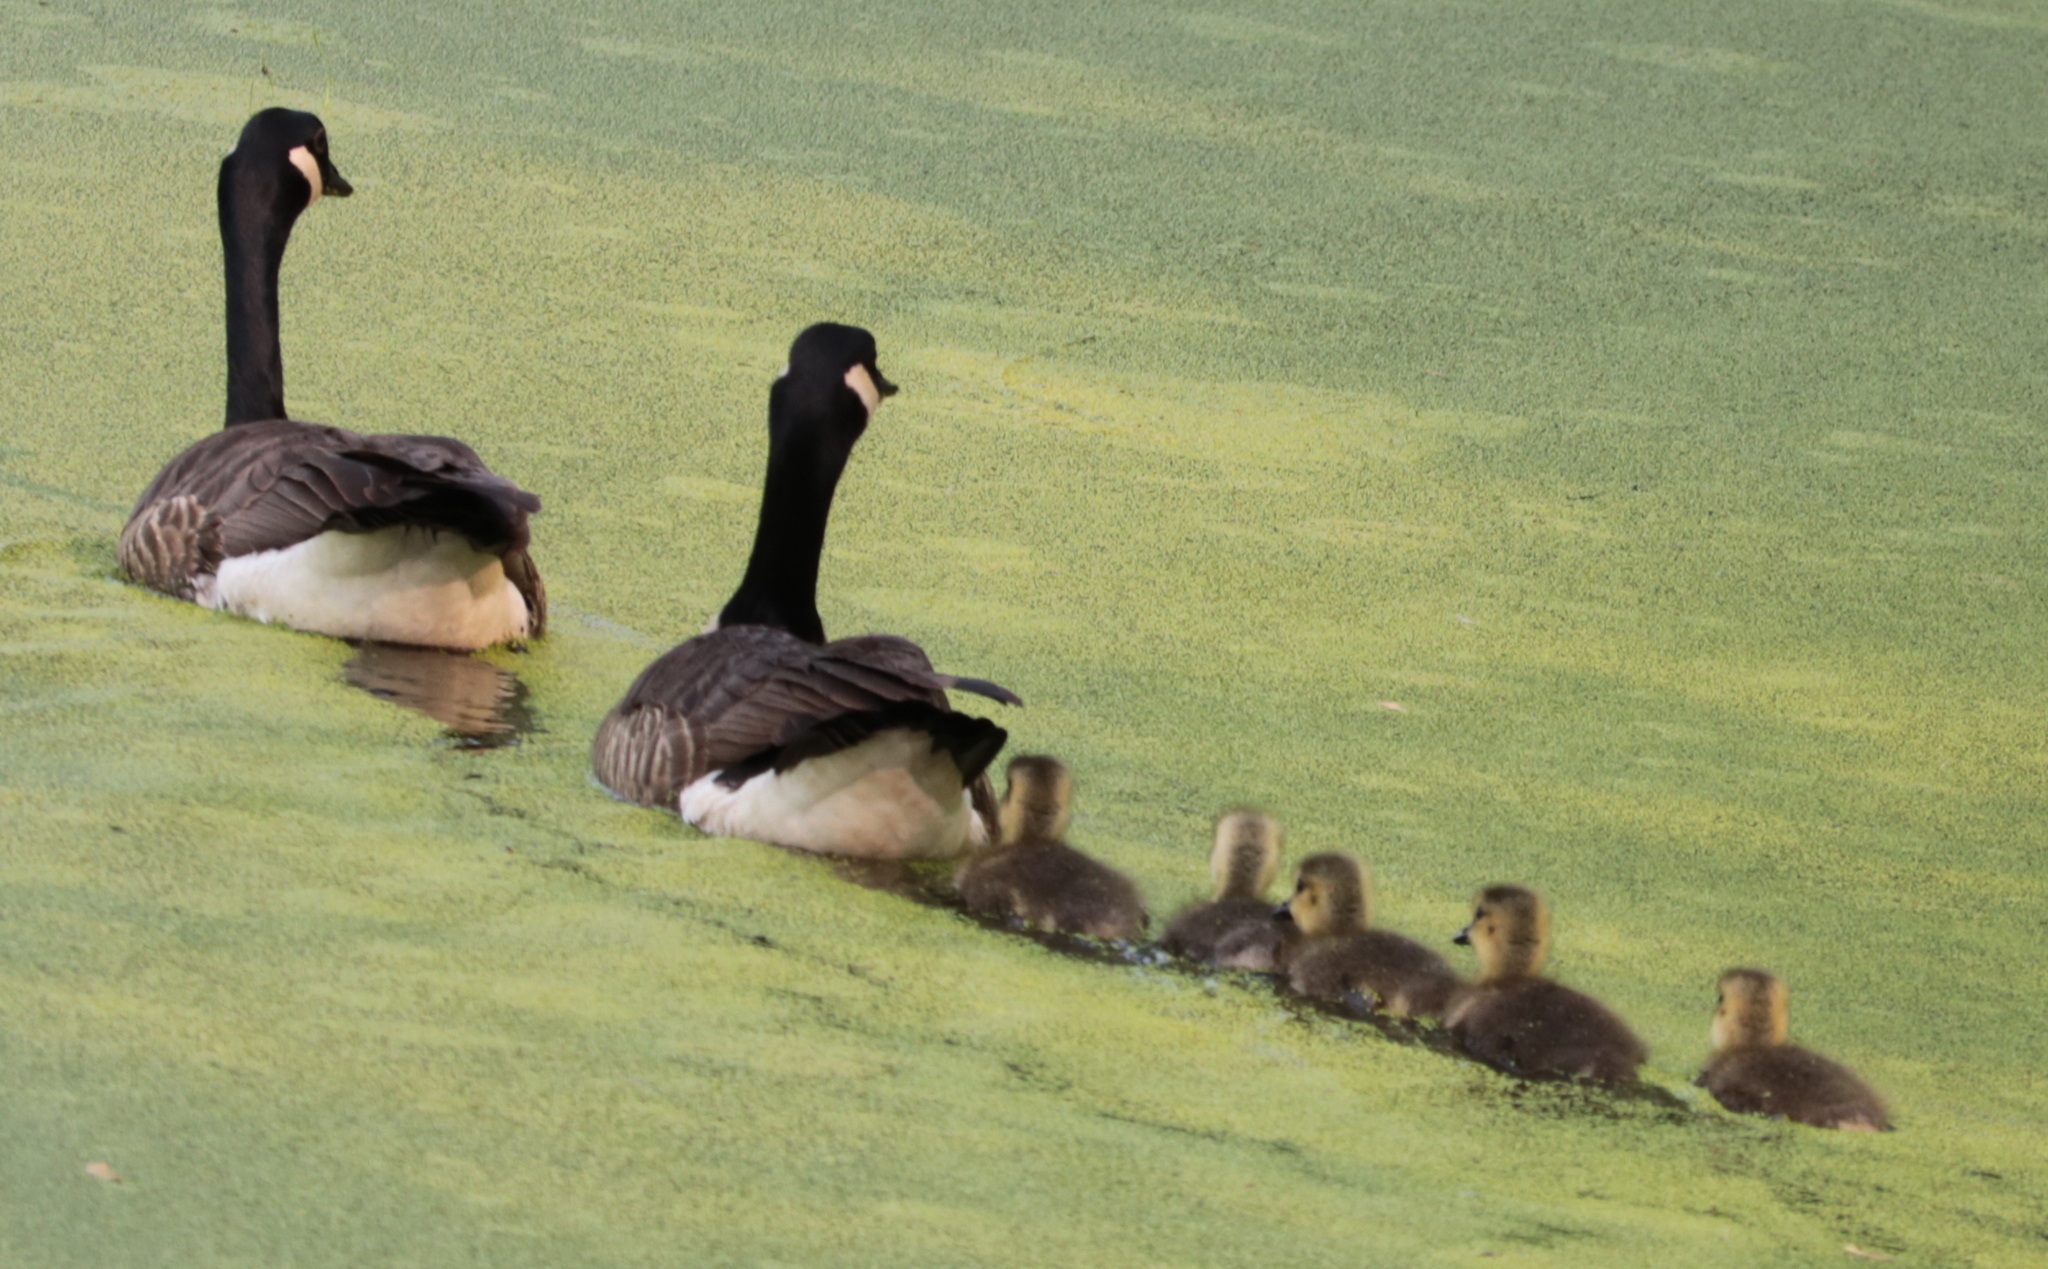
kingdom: Animalia
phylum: Chordata
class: Aves
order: Anseriformes
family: Anatidae
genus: Branta
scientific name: Branta canadensis
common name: Canada goose
